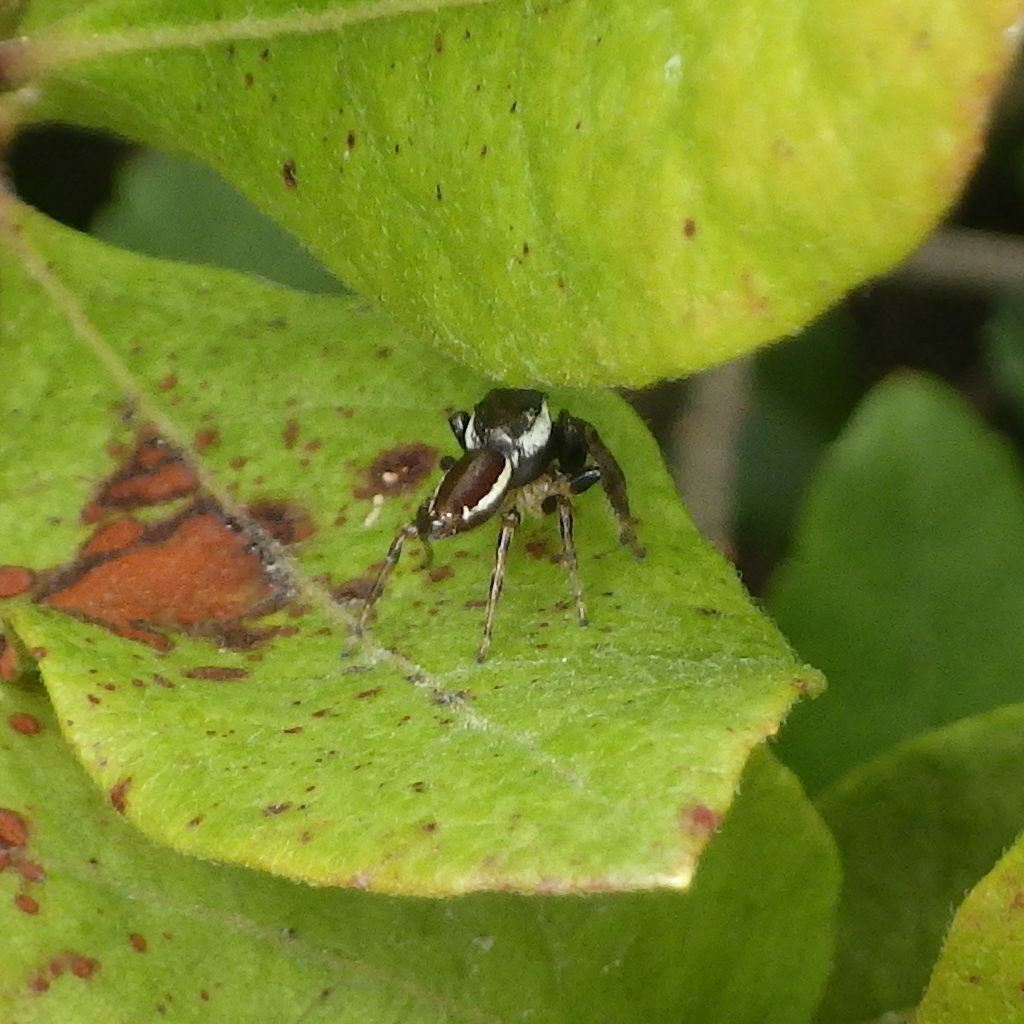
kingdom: Animalia
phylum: Arthropoda
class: Arachnida
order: Araneae
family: Salticidae
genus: Eris
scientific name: Eris militaris
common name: Bronze jumper
